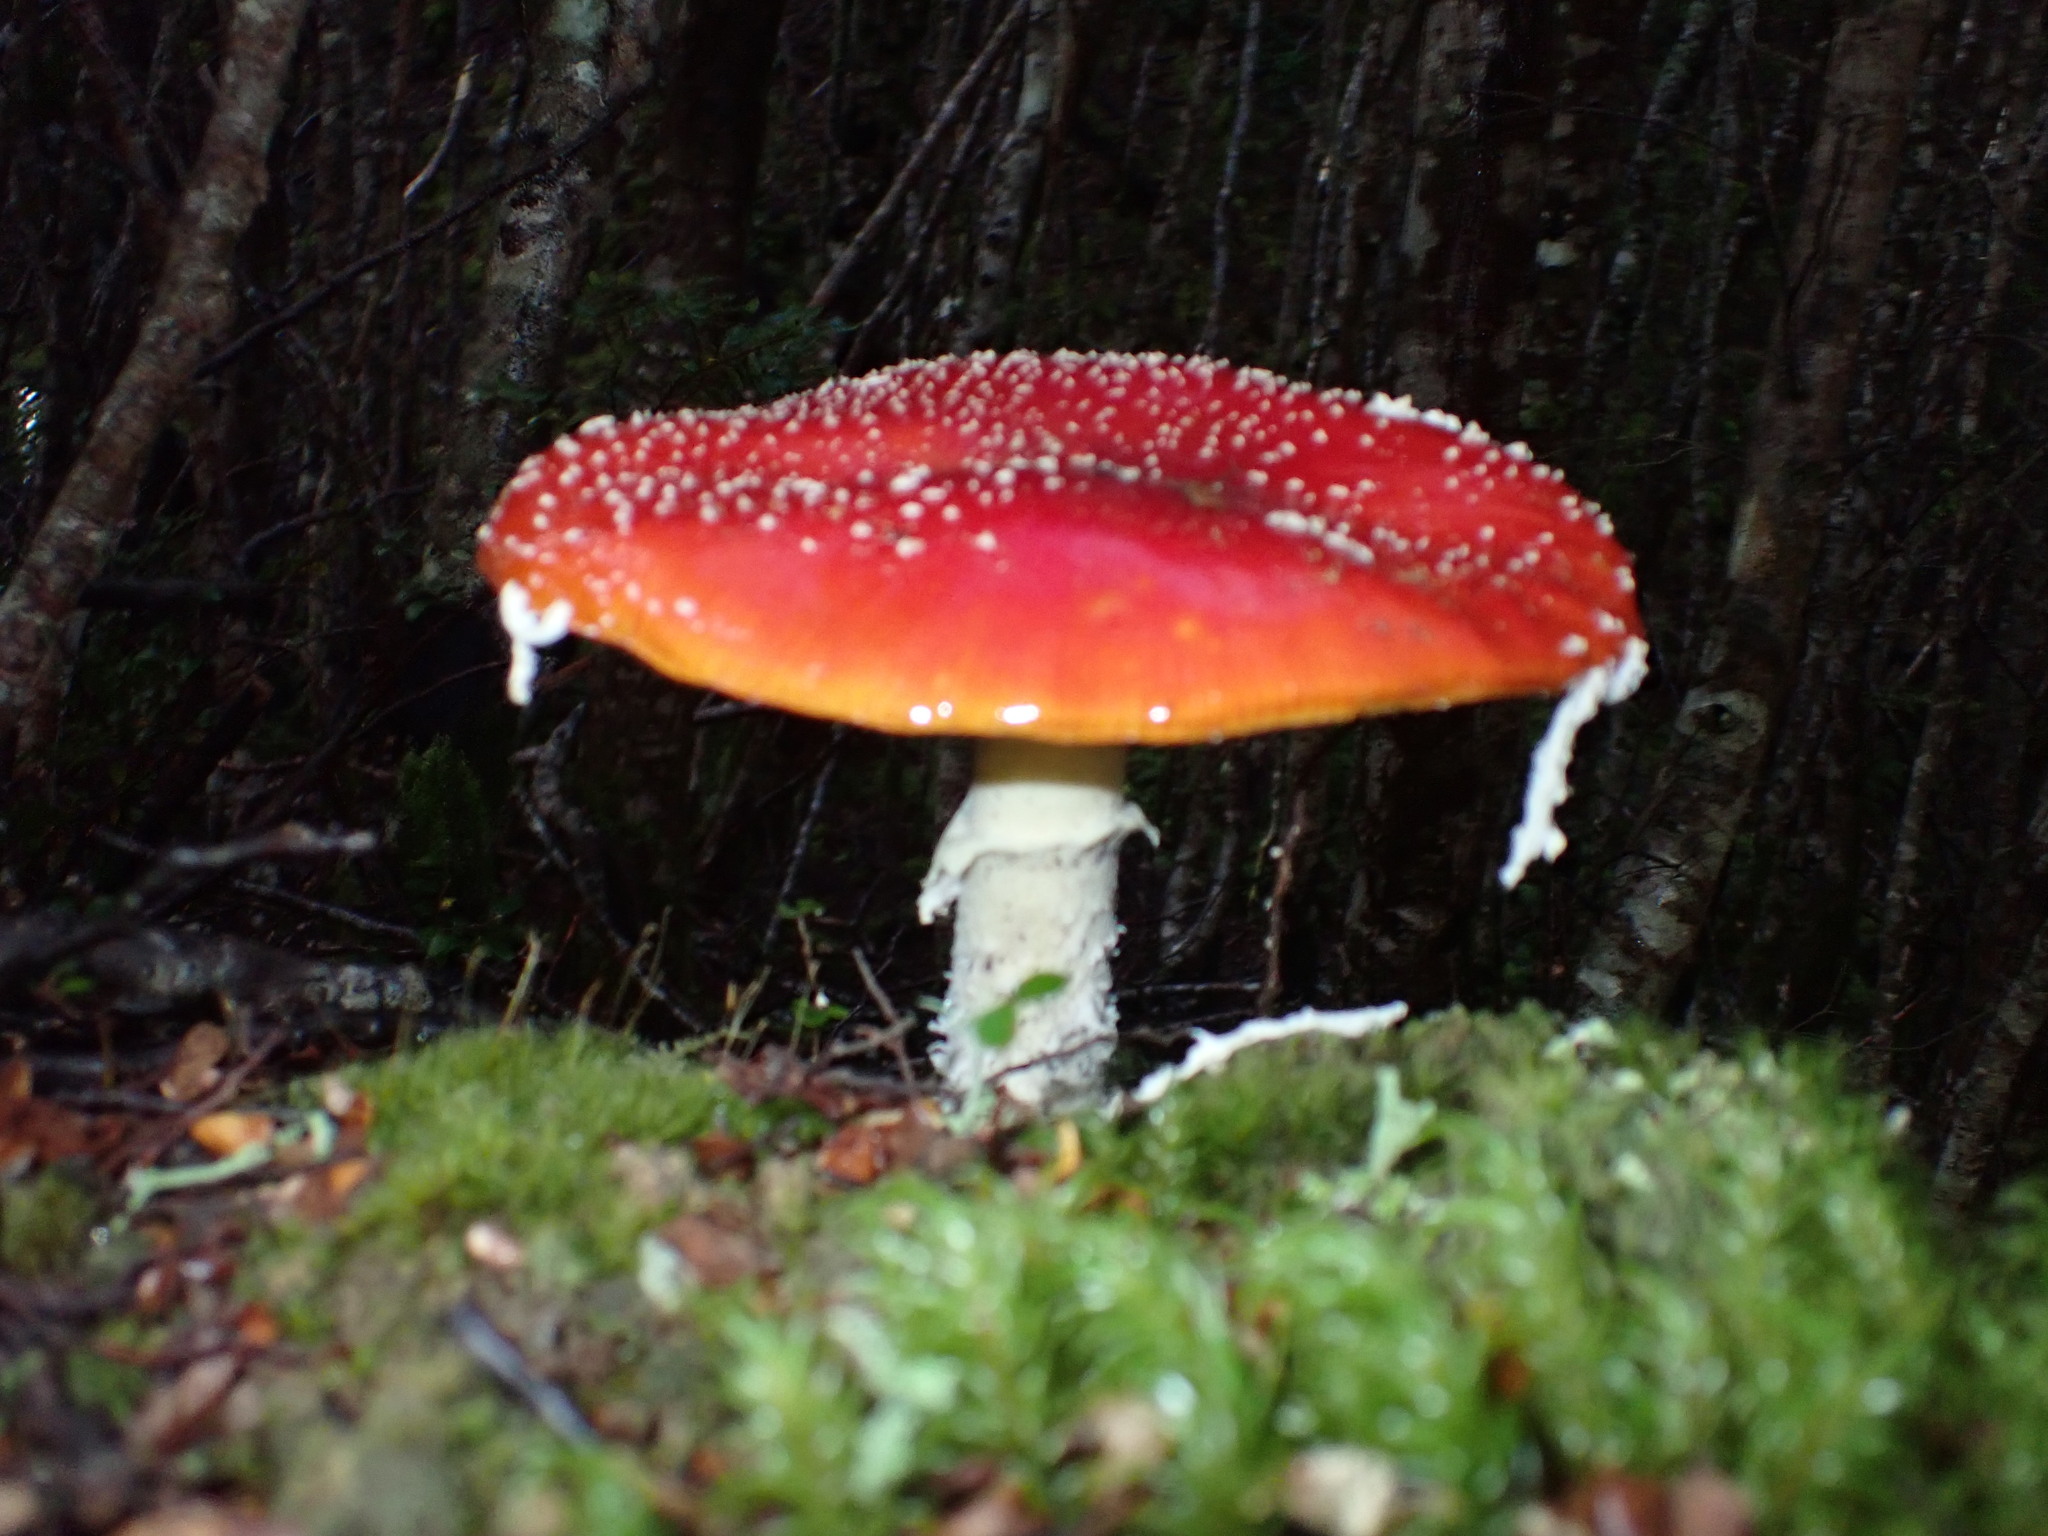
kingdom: Fungi
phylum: Basidiomycota
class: Agaricomycetes
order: Agaricales
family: Amanitaceae
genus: Amanita
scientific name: Amanita muscaria
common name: Fly agaric
